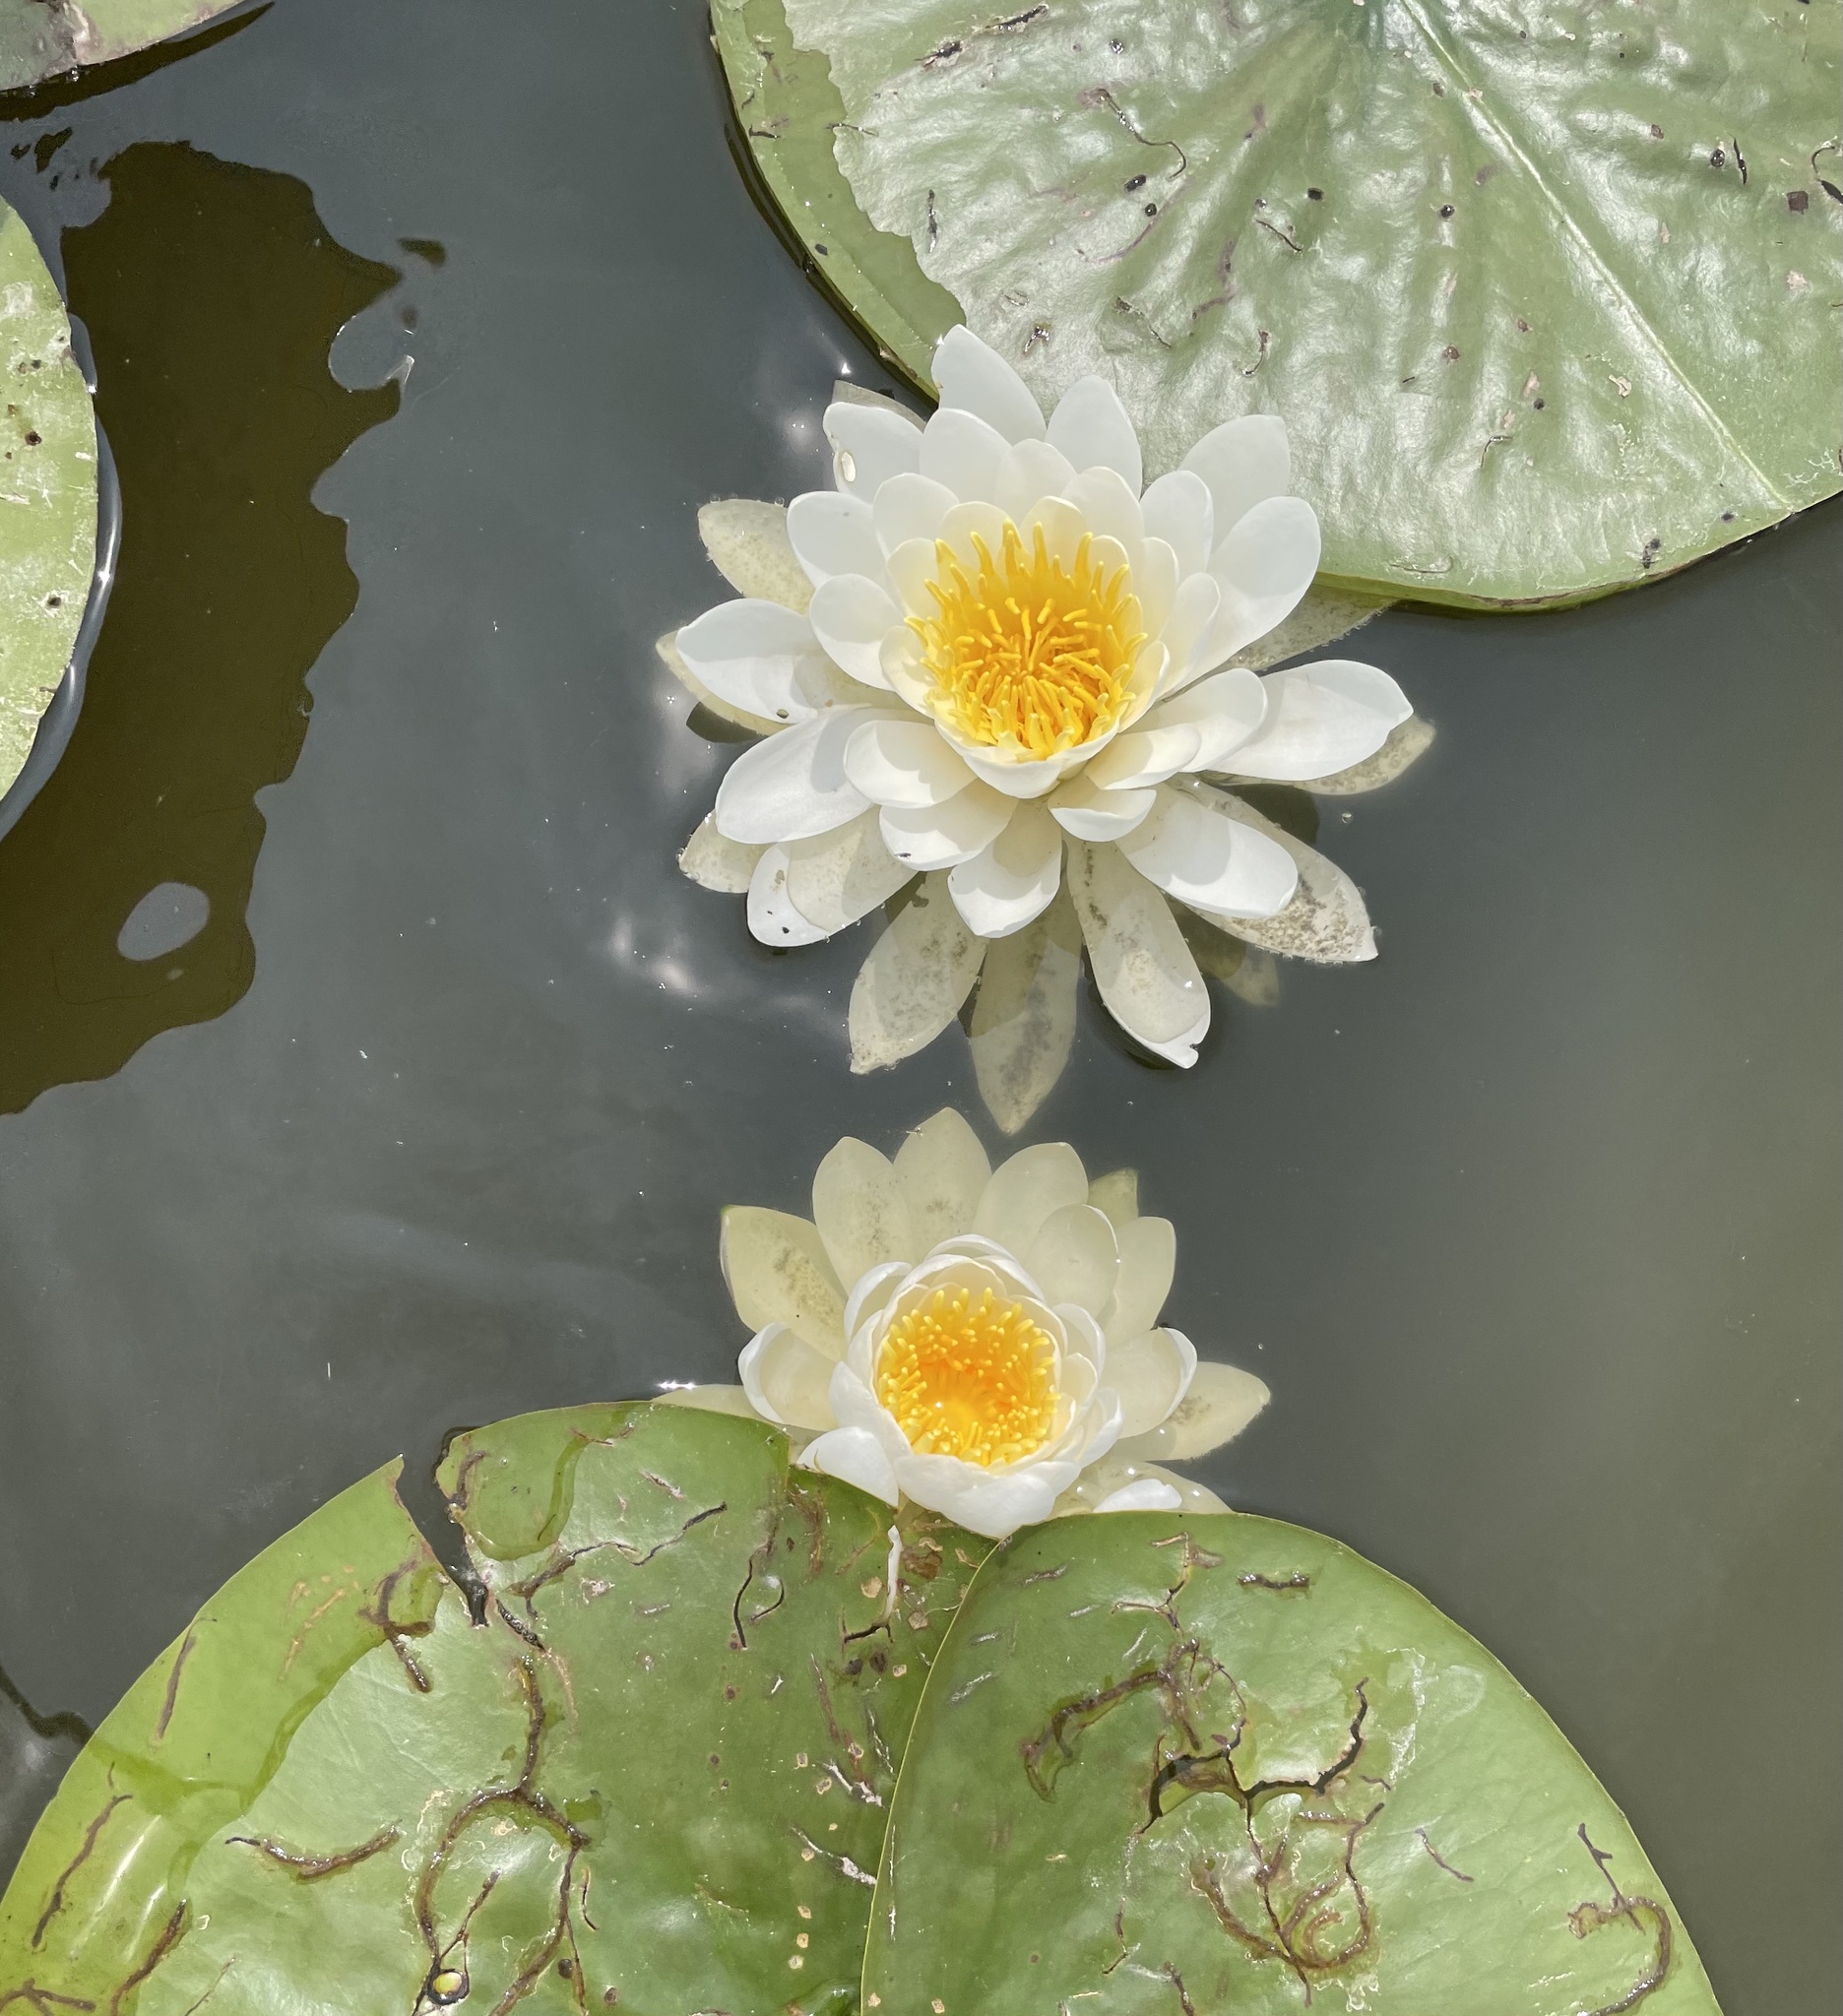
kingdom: Plantae
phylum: Tracheophyta
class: Magnoliopsida
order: Nymphaeales
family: Nymphaeaceae
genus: Nymphaea
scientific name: Nymphaea odorata
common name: Fragrant water-lily
